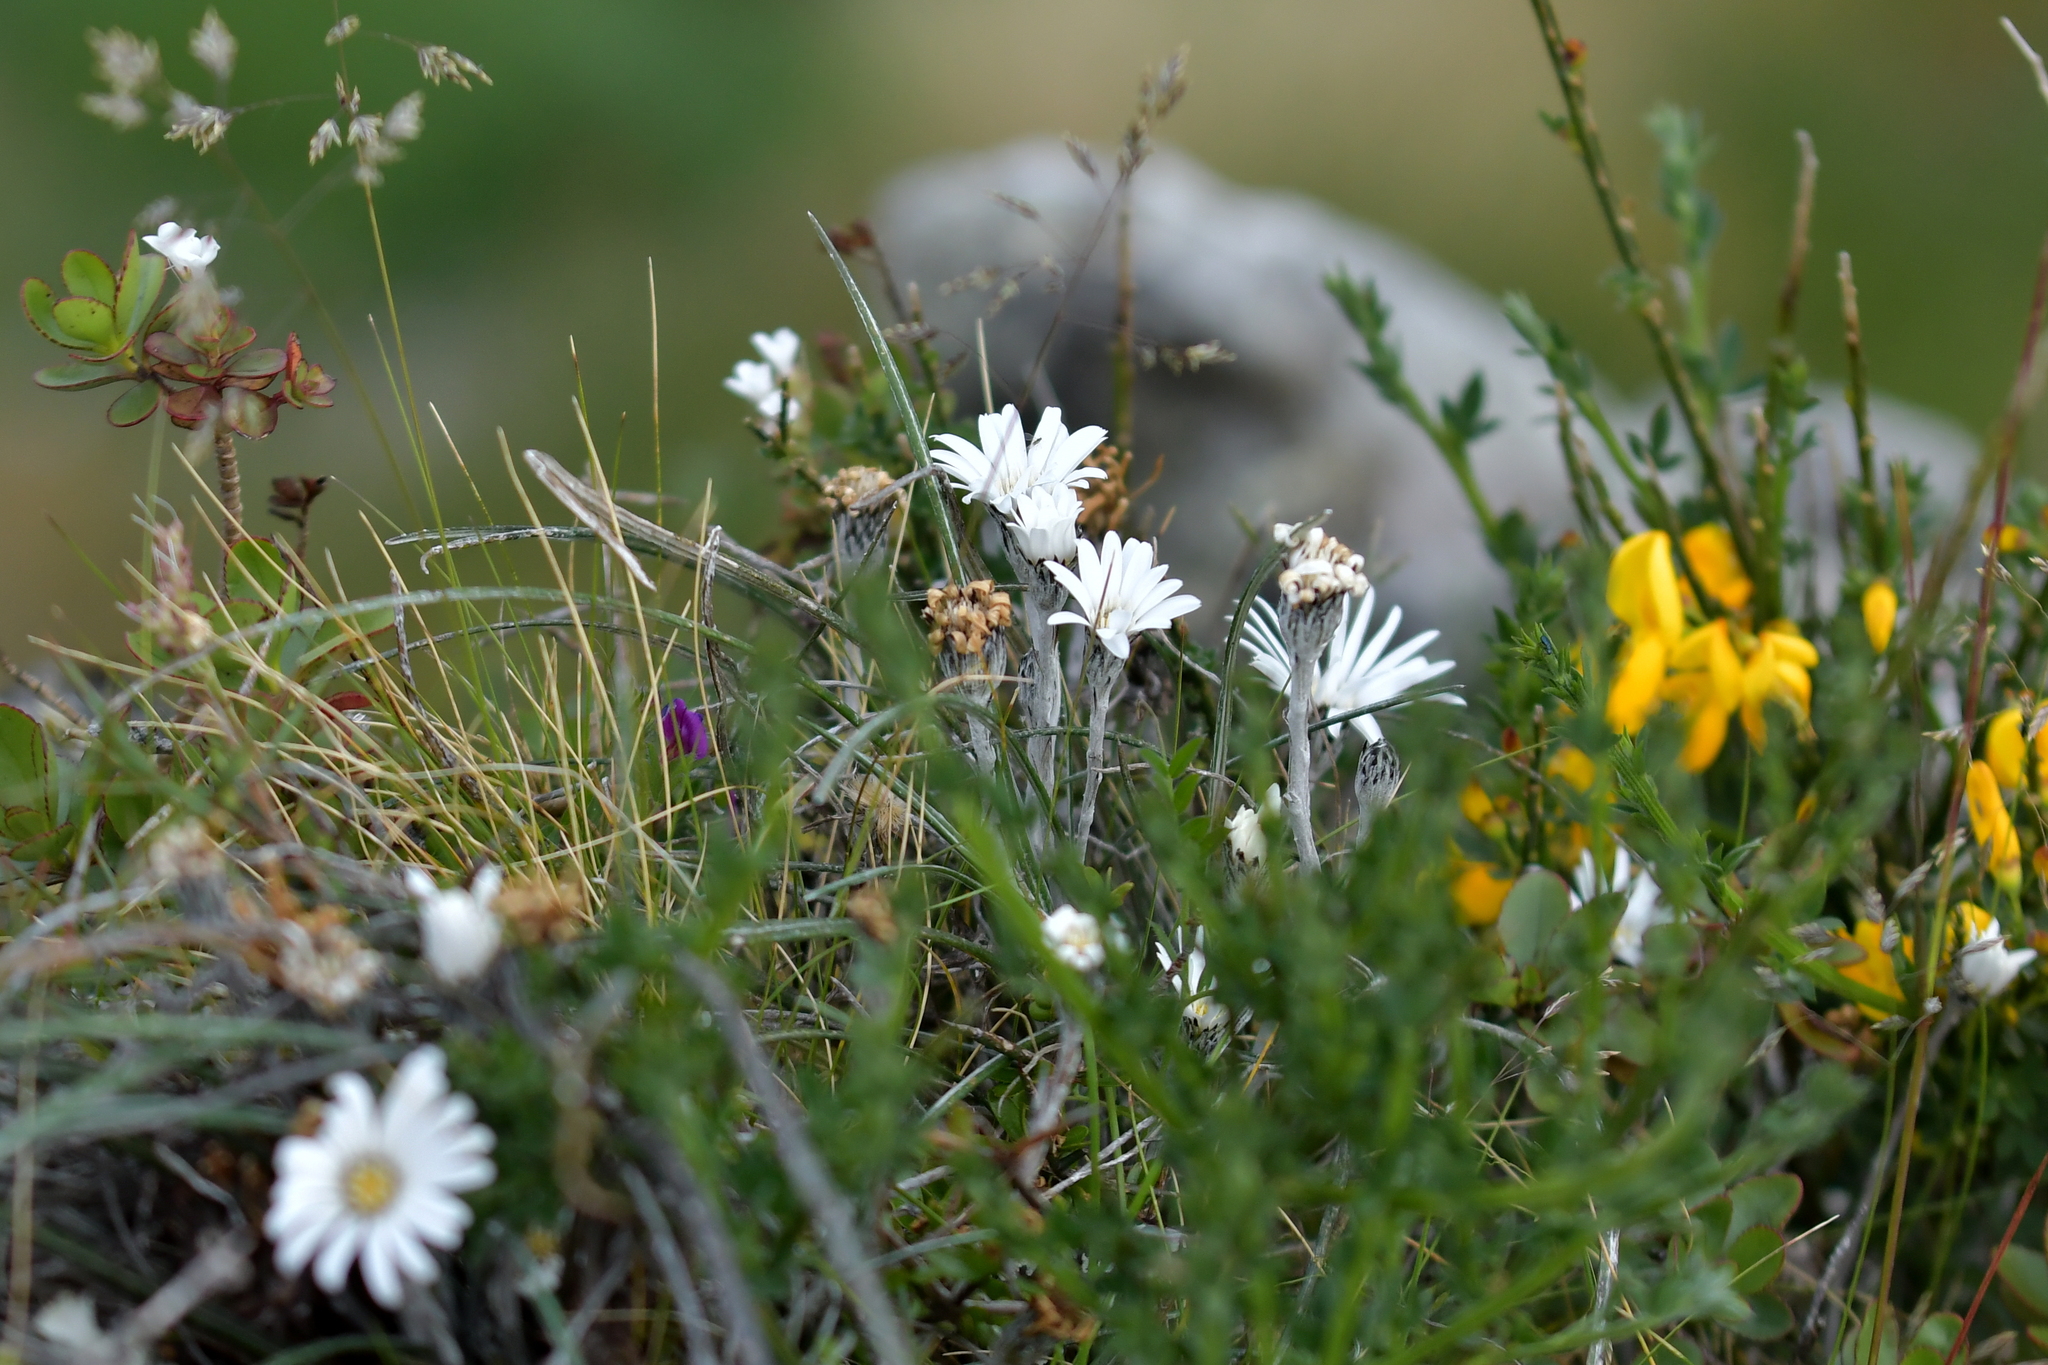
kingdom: Plantae
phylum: Tracheophyta
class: Magnoliopsida
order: Asterales
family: Asteraceae
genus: Celmisia
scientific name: Celmisia gracilenta
